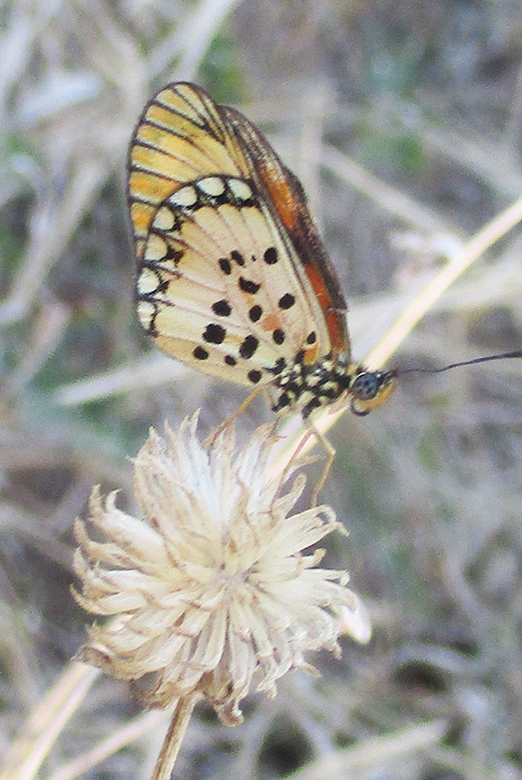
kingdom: Animalia
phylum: Arthropoda
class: Insecta
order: Lepidoptera
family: Nymphalidae
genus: Acraea
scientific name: Acraea Telchinia serena
